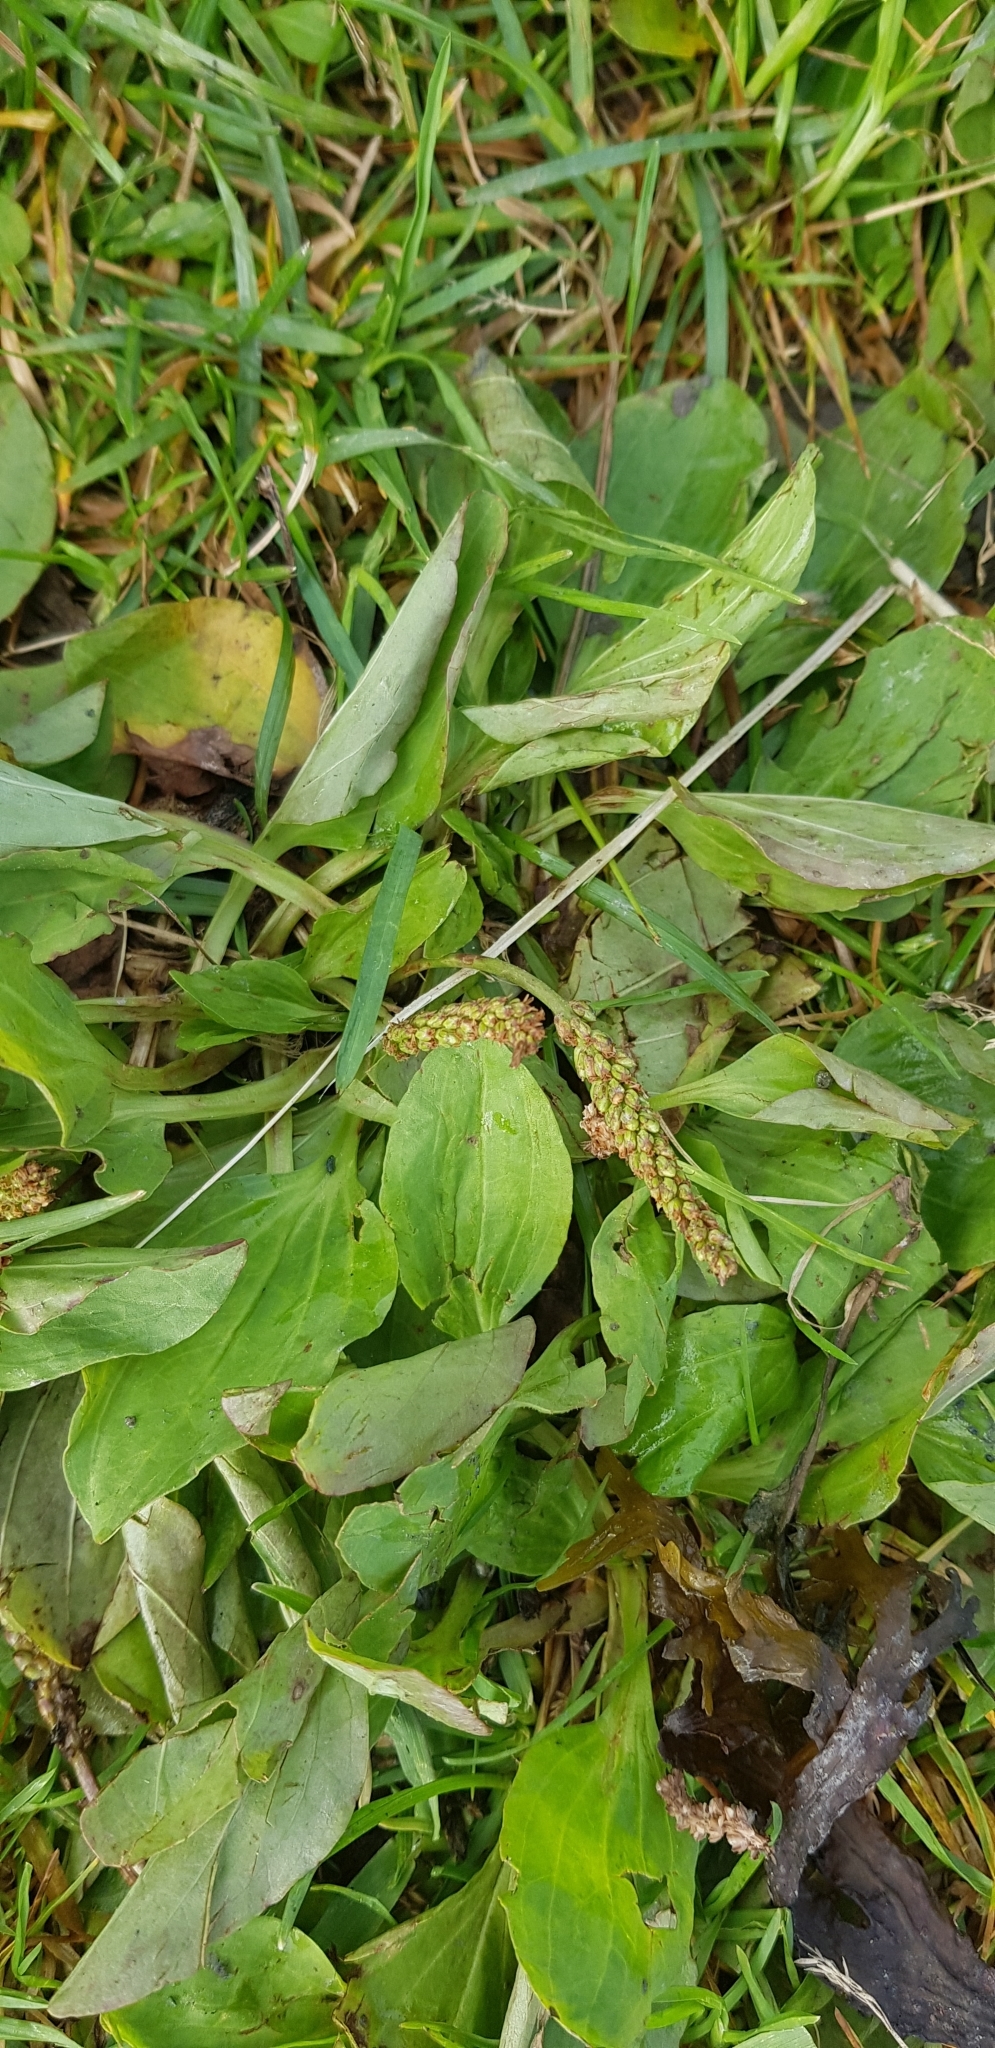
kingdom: Plantae
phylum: Tracheophyta
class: Magnoliopsida
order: Lamiales
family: Plantaginaceae
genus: Plantago
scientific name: Plantago major
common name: Common plantain
